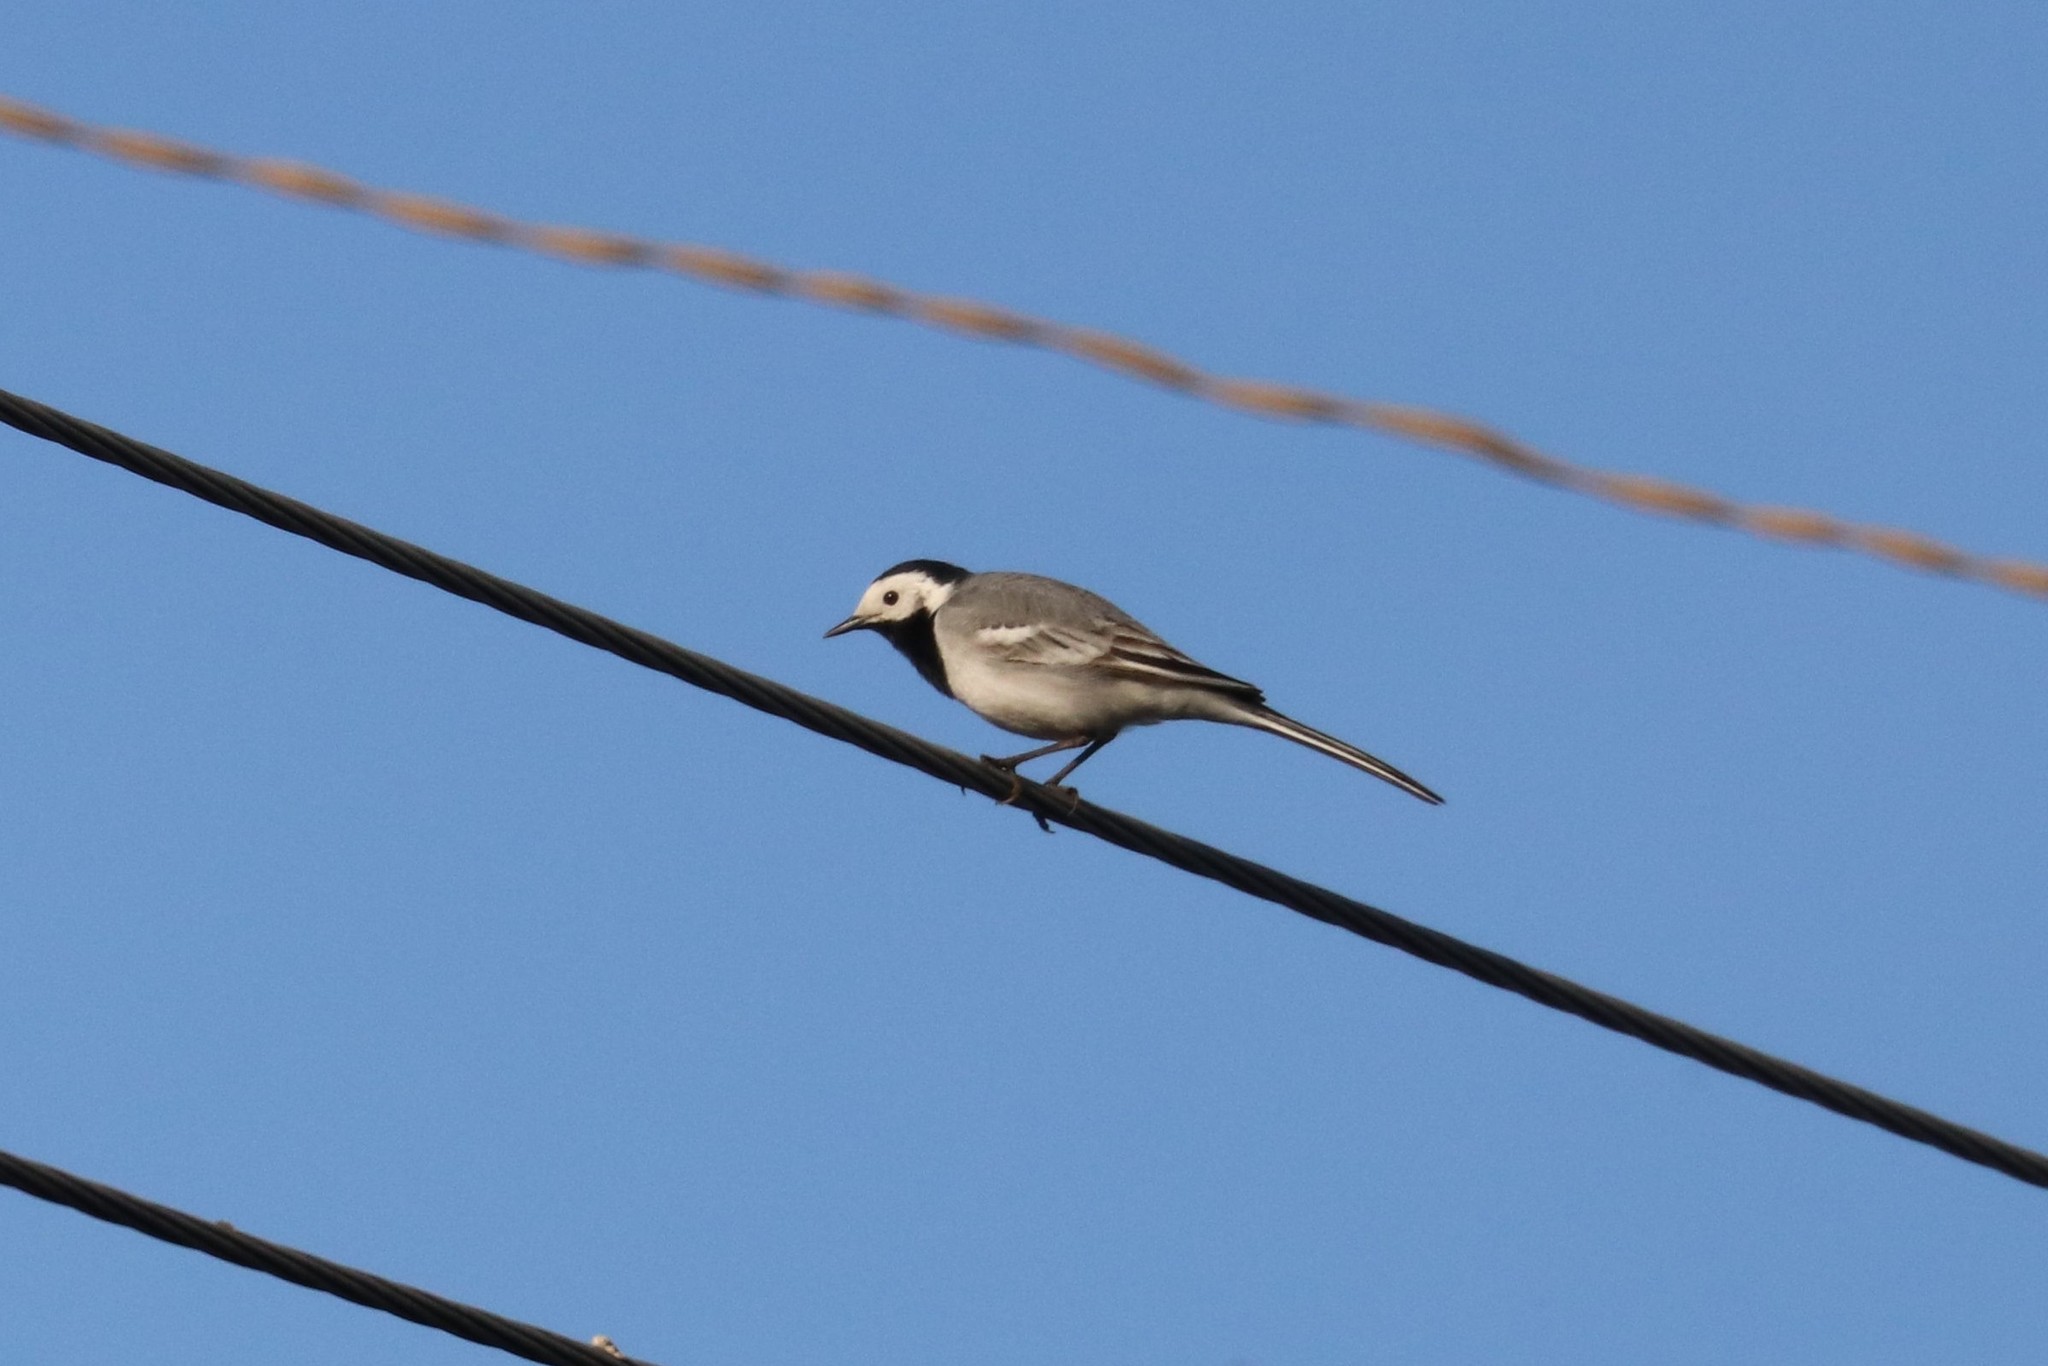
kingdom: Animalia
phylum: Chordata
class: Aves
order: Passeriformes
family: Motacillidae
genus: Motacilla
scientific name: Motacilla alba
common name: White wagtail
